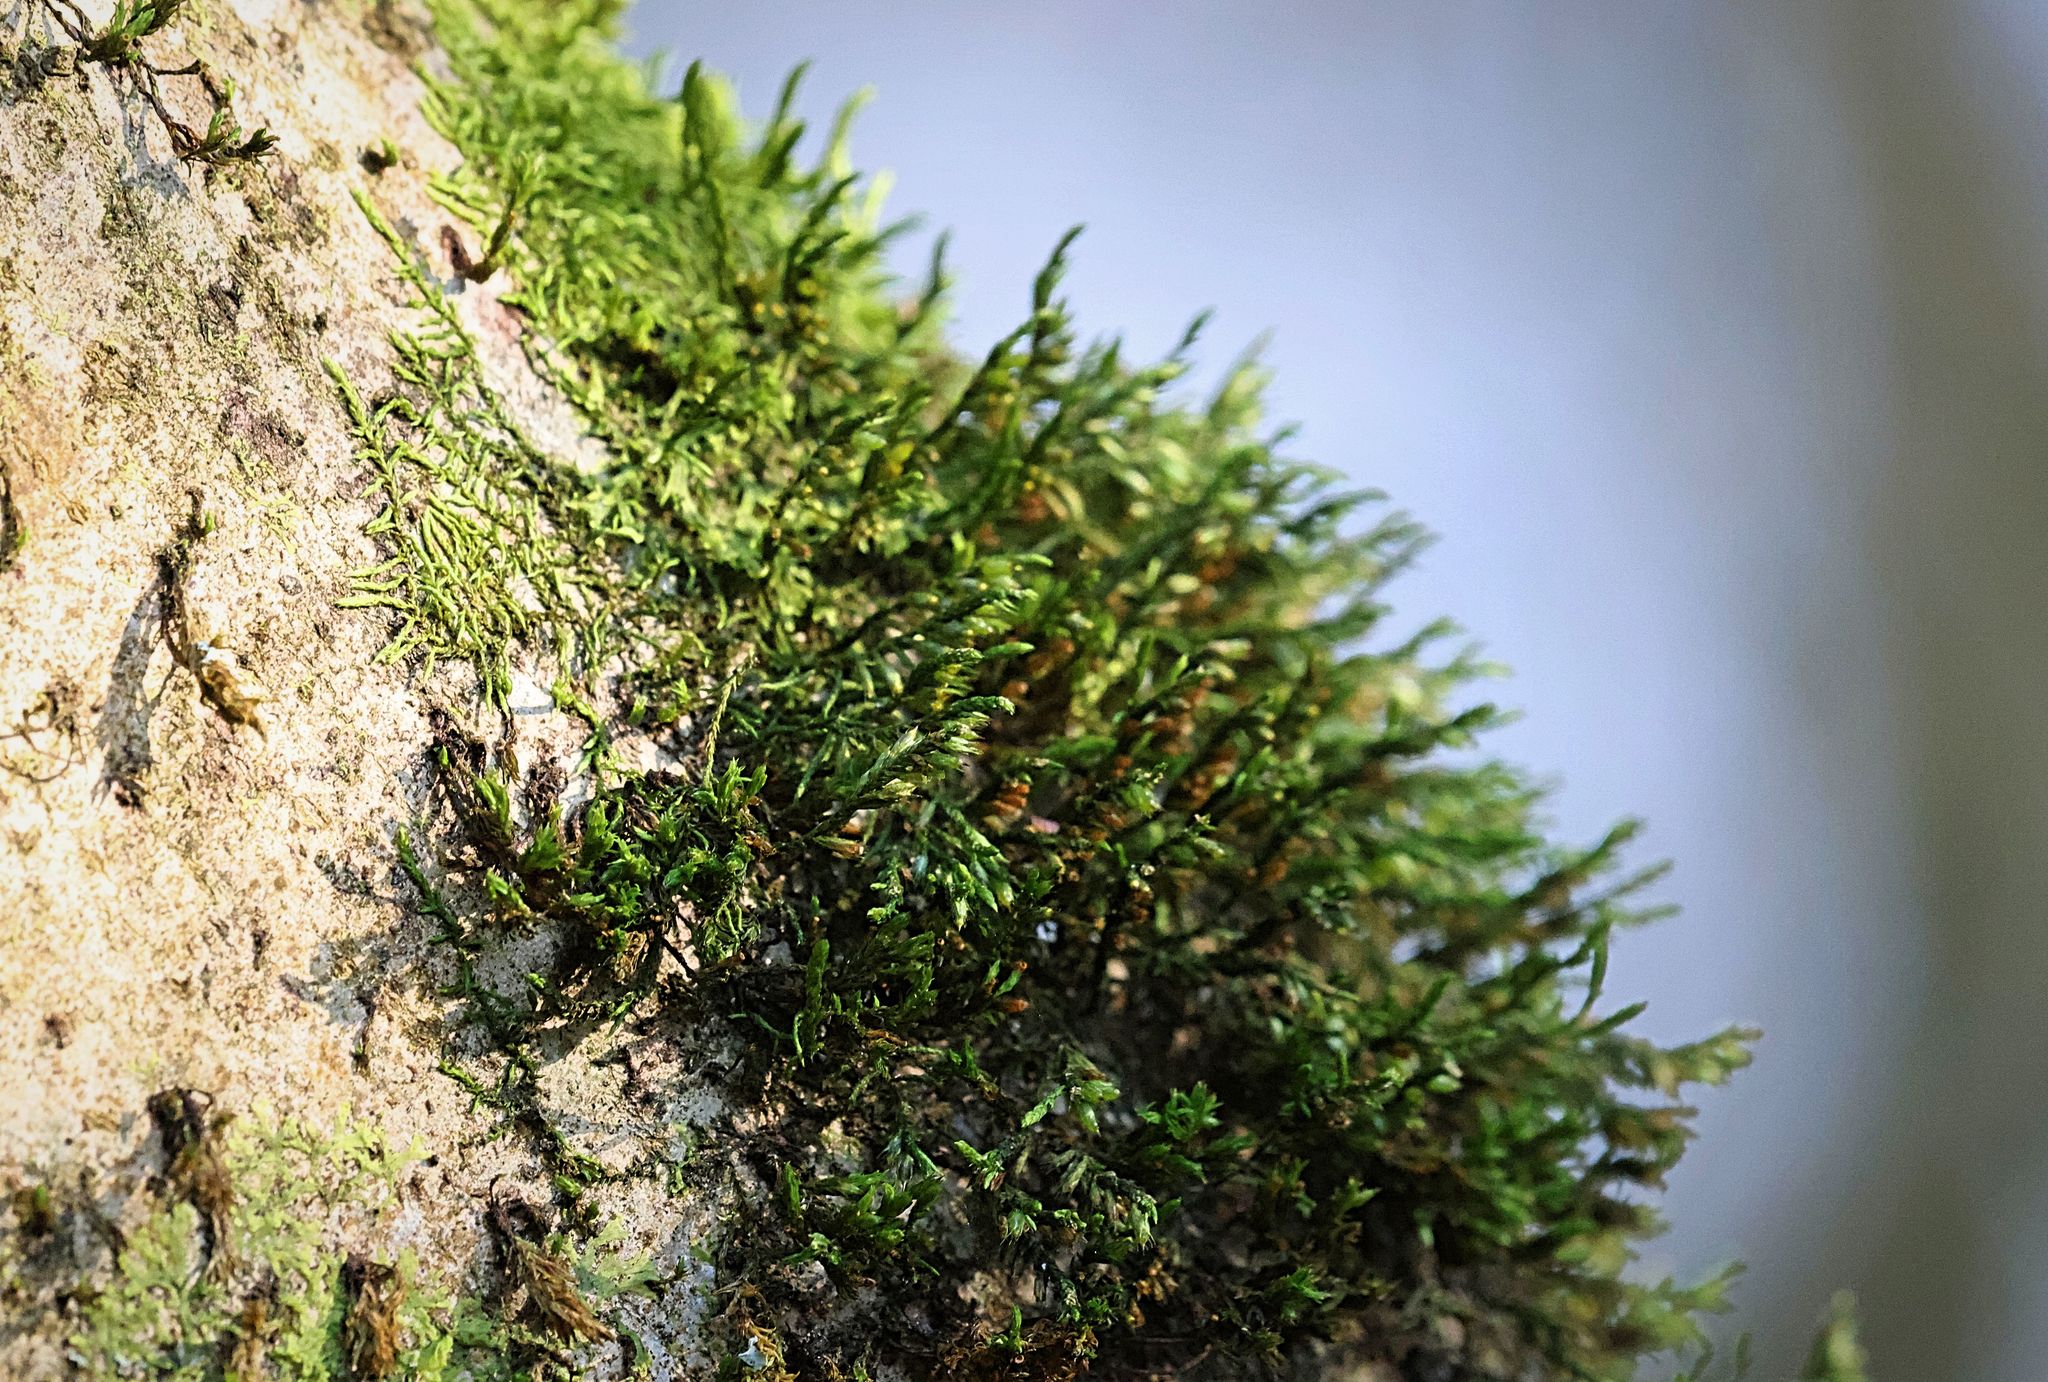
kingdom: Plantae
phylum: Bryophyta
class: Bryopsida
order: Hypnales
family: Cryphaeaceae
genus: Cryphaea
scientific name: Cryphaea heteromalla
